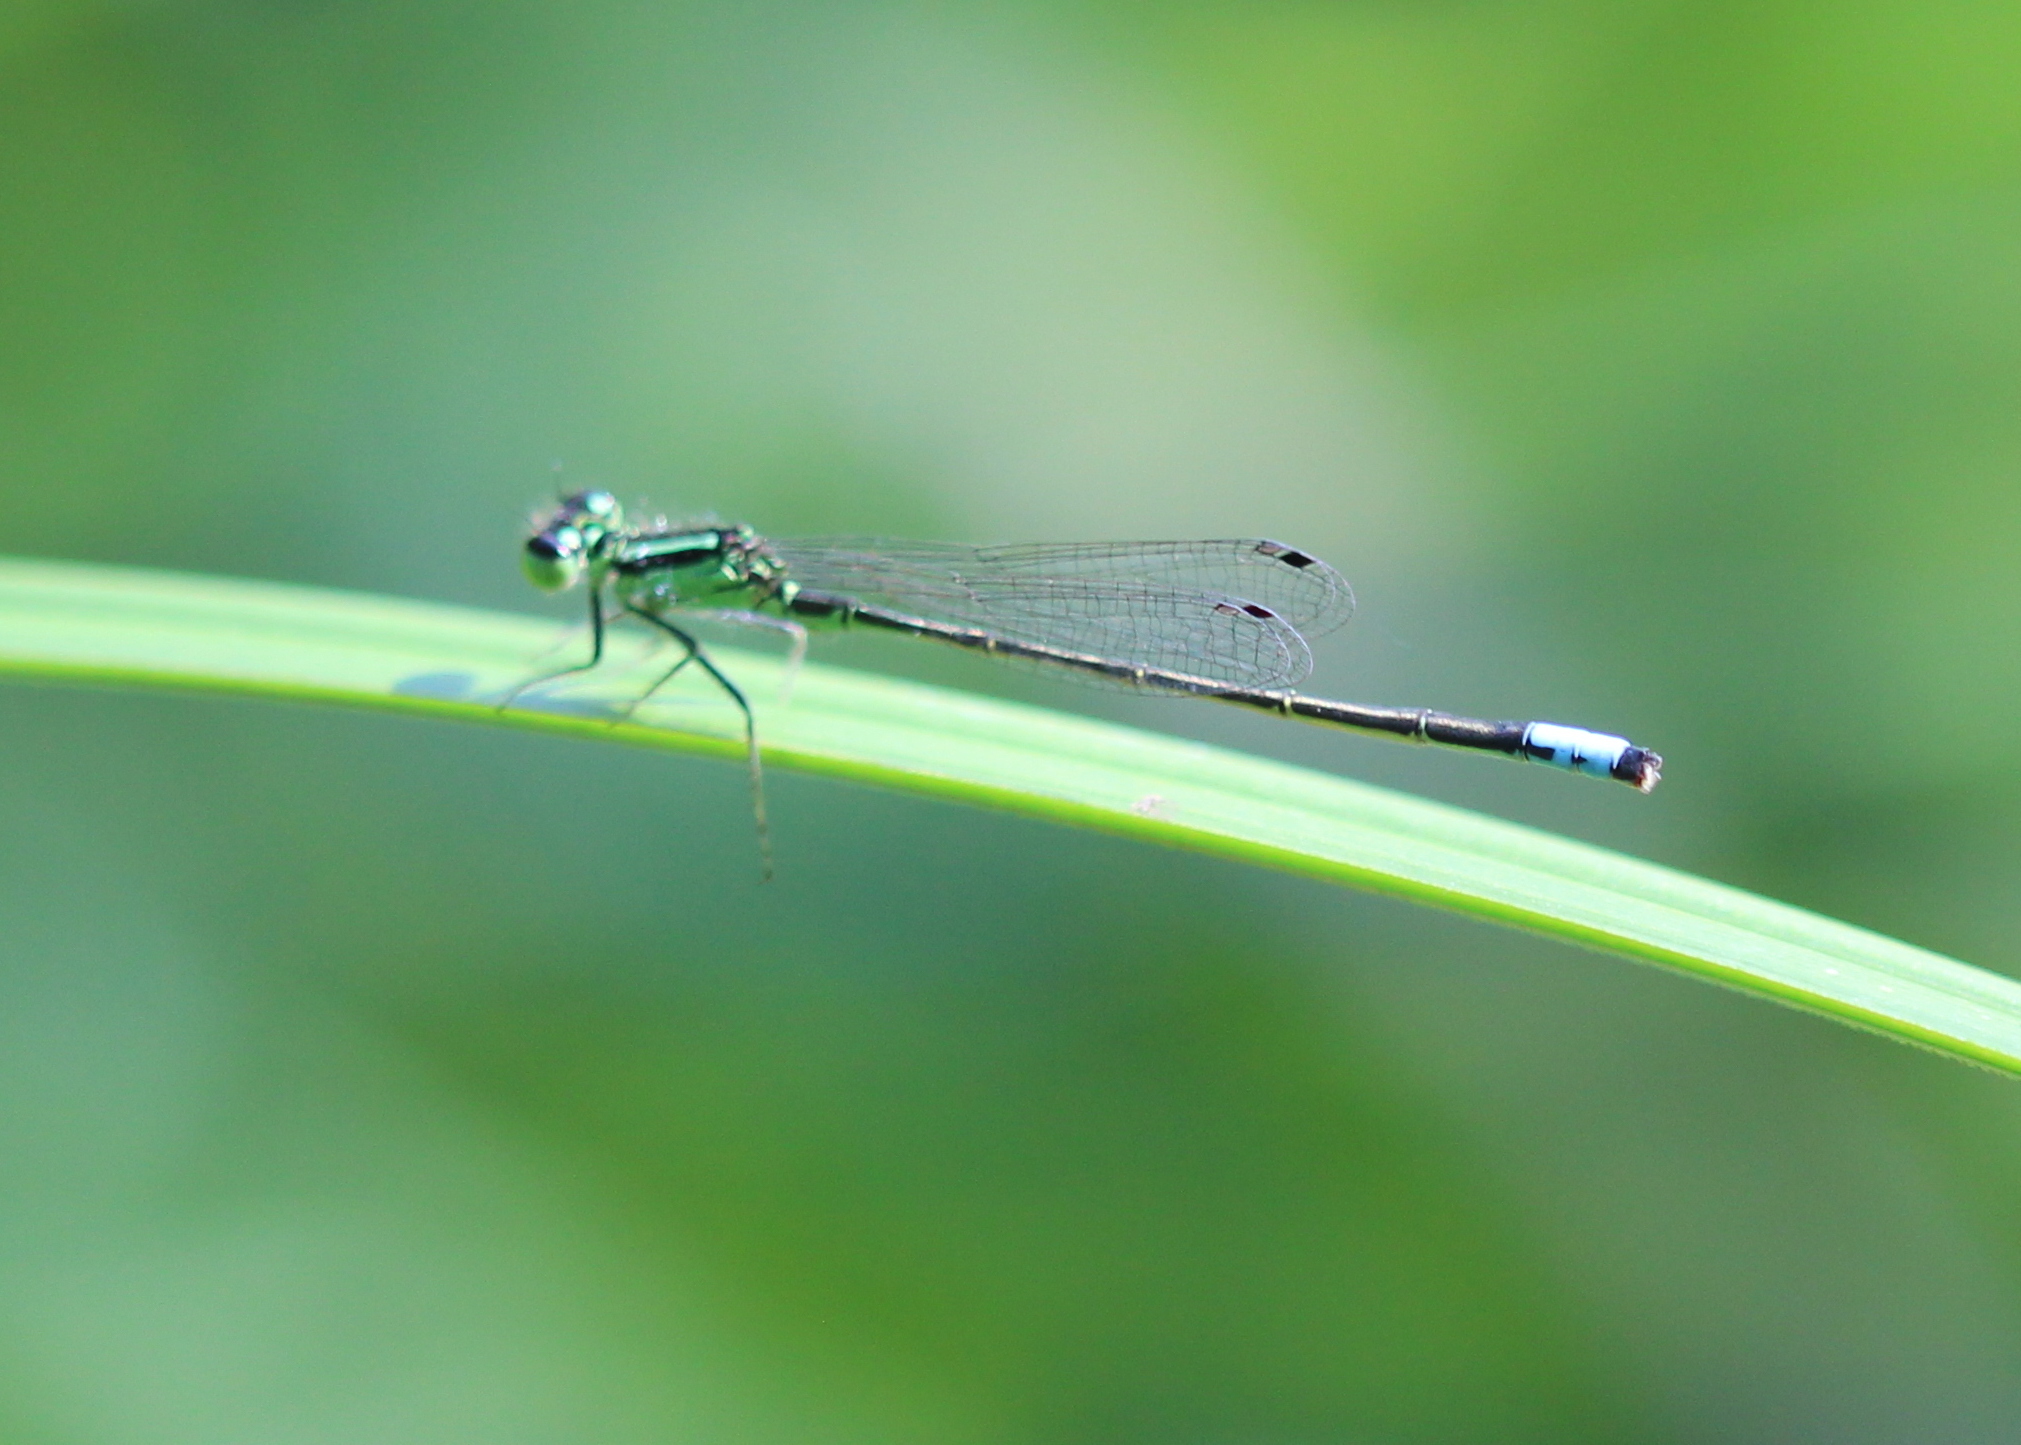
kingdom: Animalia
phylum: Arthropoda
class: Insecta
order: Odonata
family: Coenagrionidae
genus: Ischnura
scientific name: Ischnura verticalis
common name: Eastern forktail
